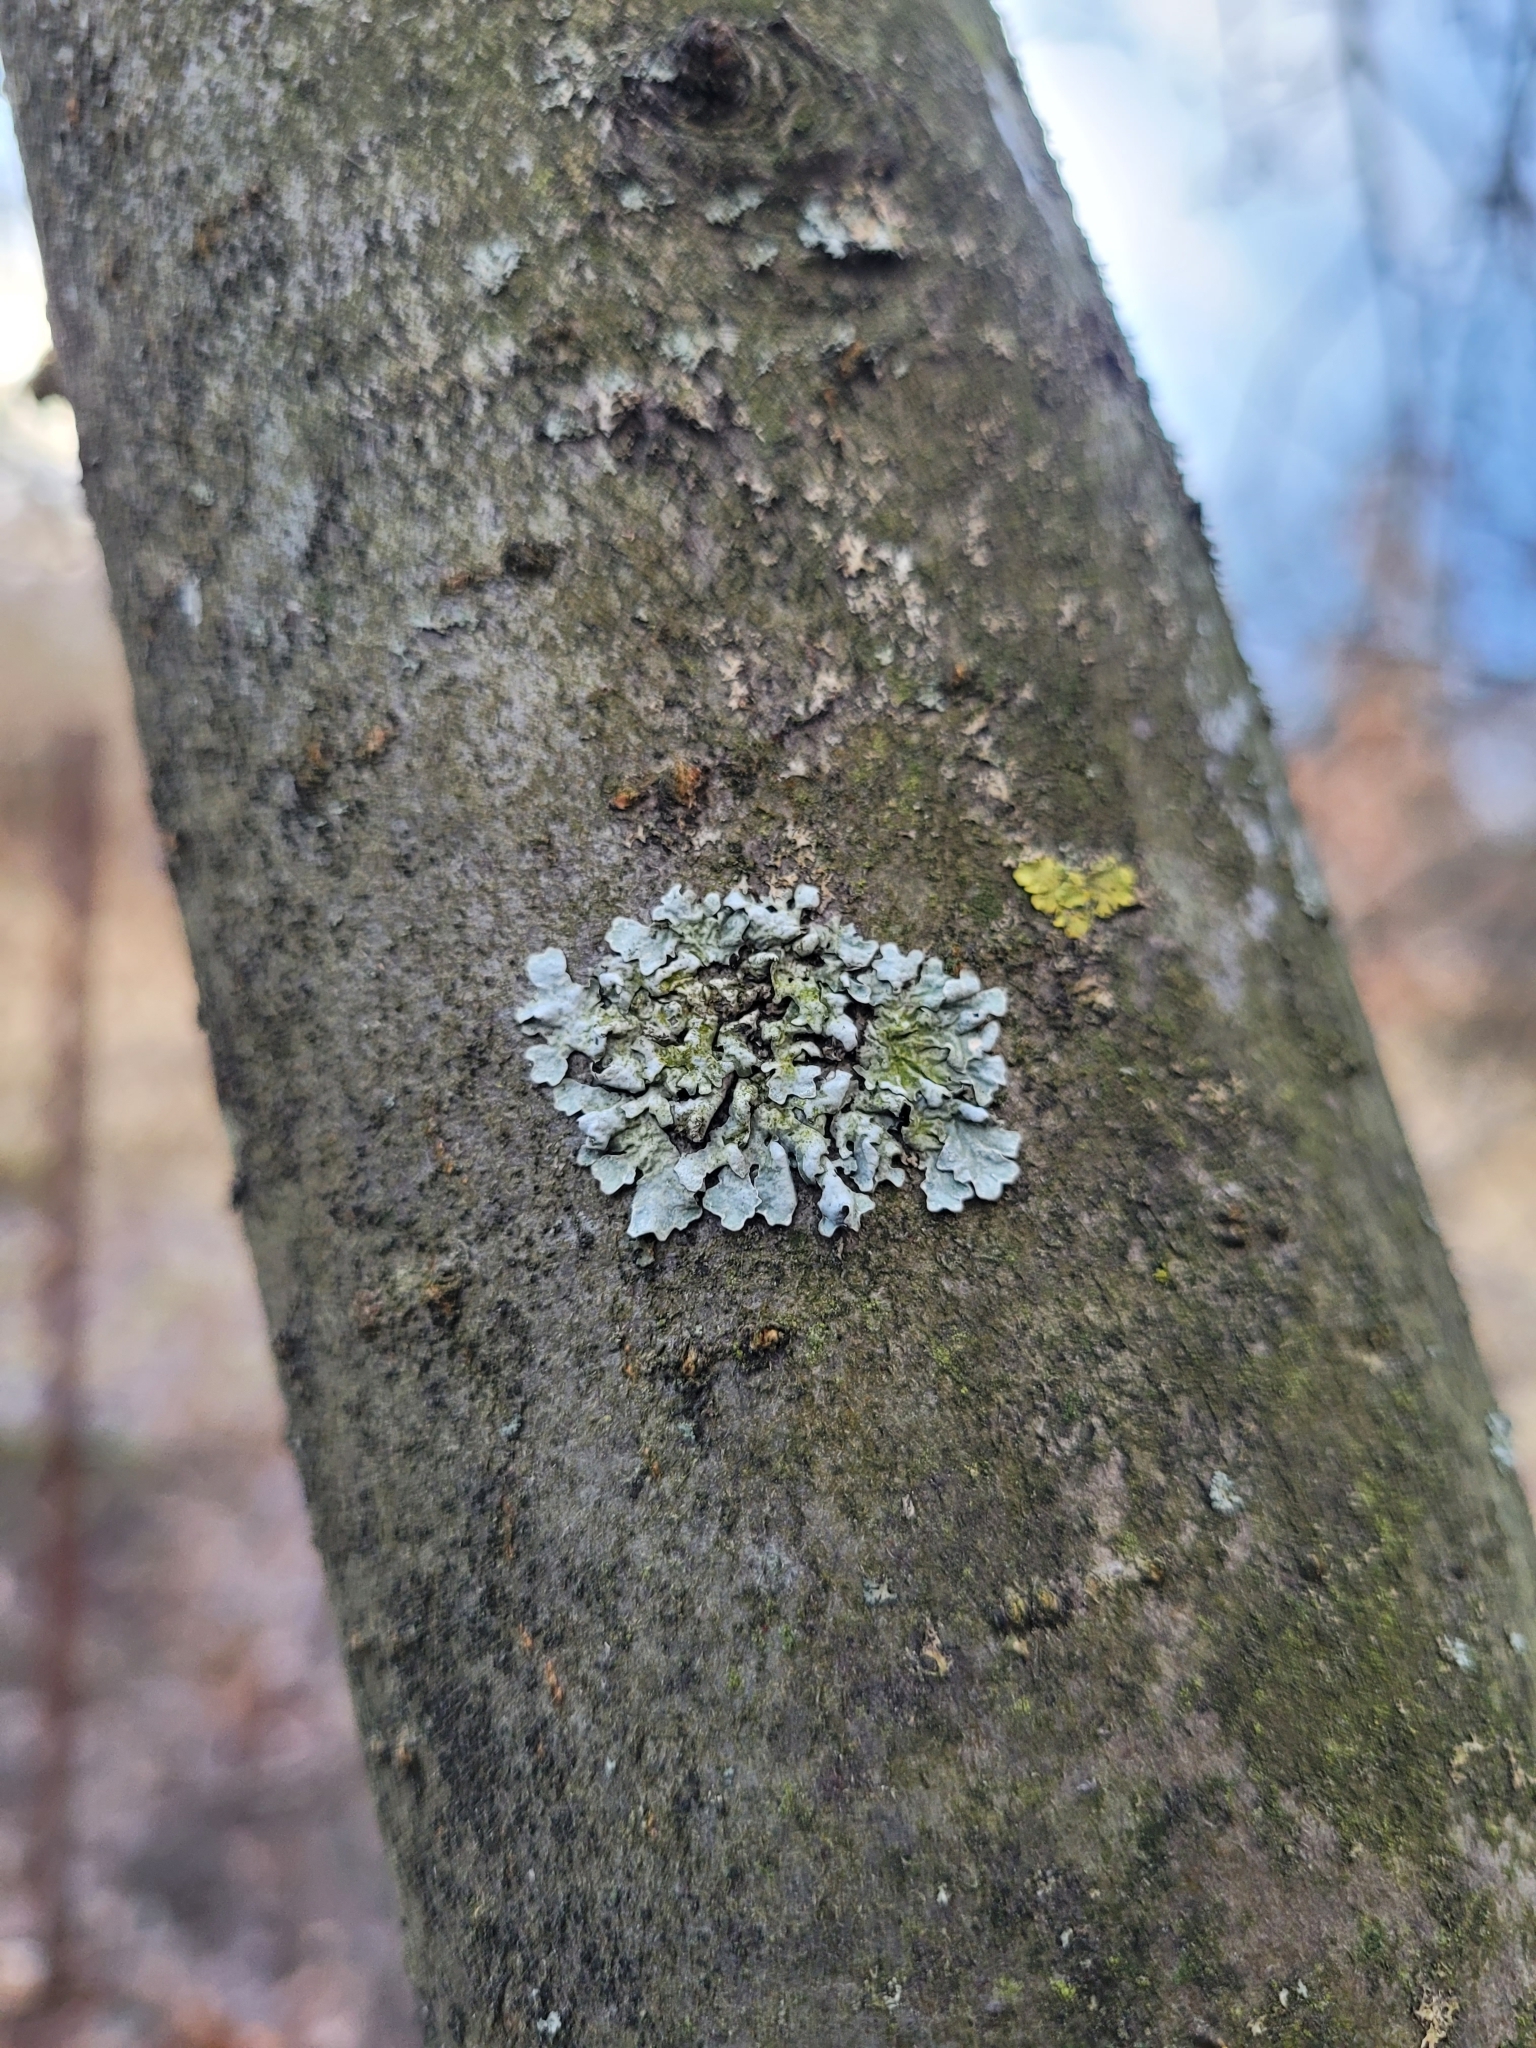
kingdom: Fungi
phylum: Ascomycota
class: Lecanoromycetes
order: Lecanorales
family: Parmeliaceae
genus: Parmelia
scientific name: Parmelia sulcata
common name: Netted shield lichen
